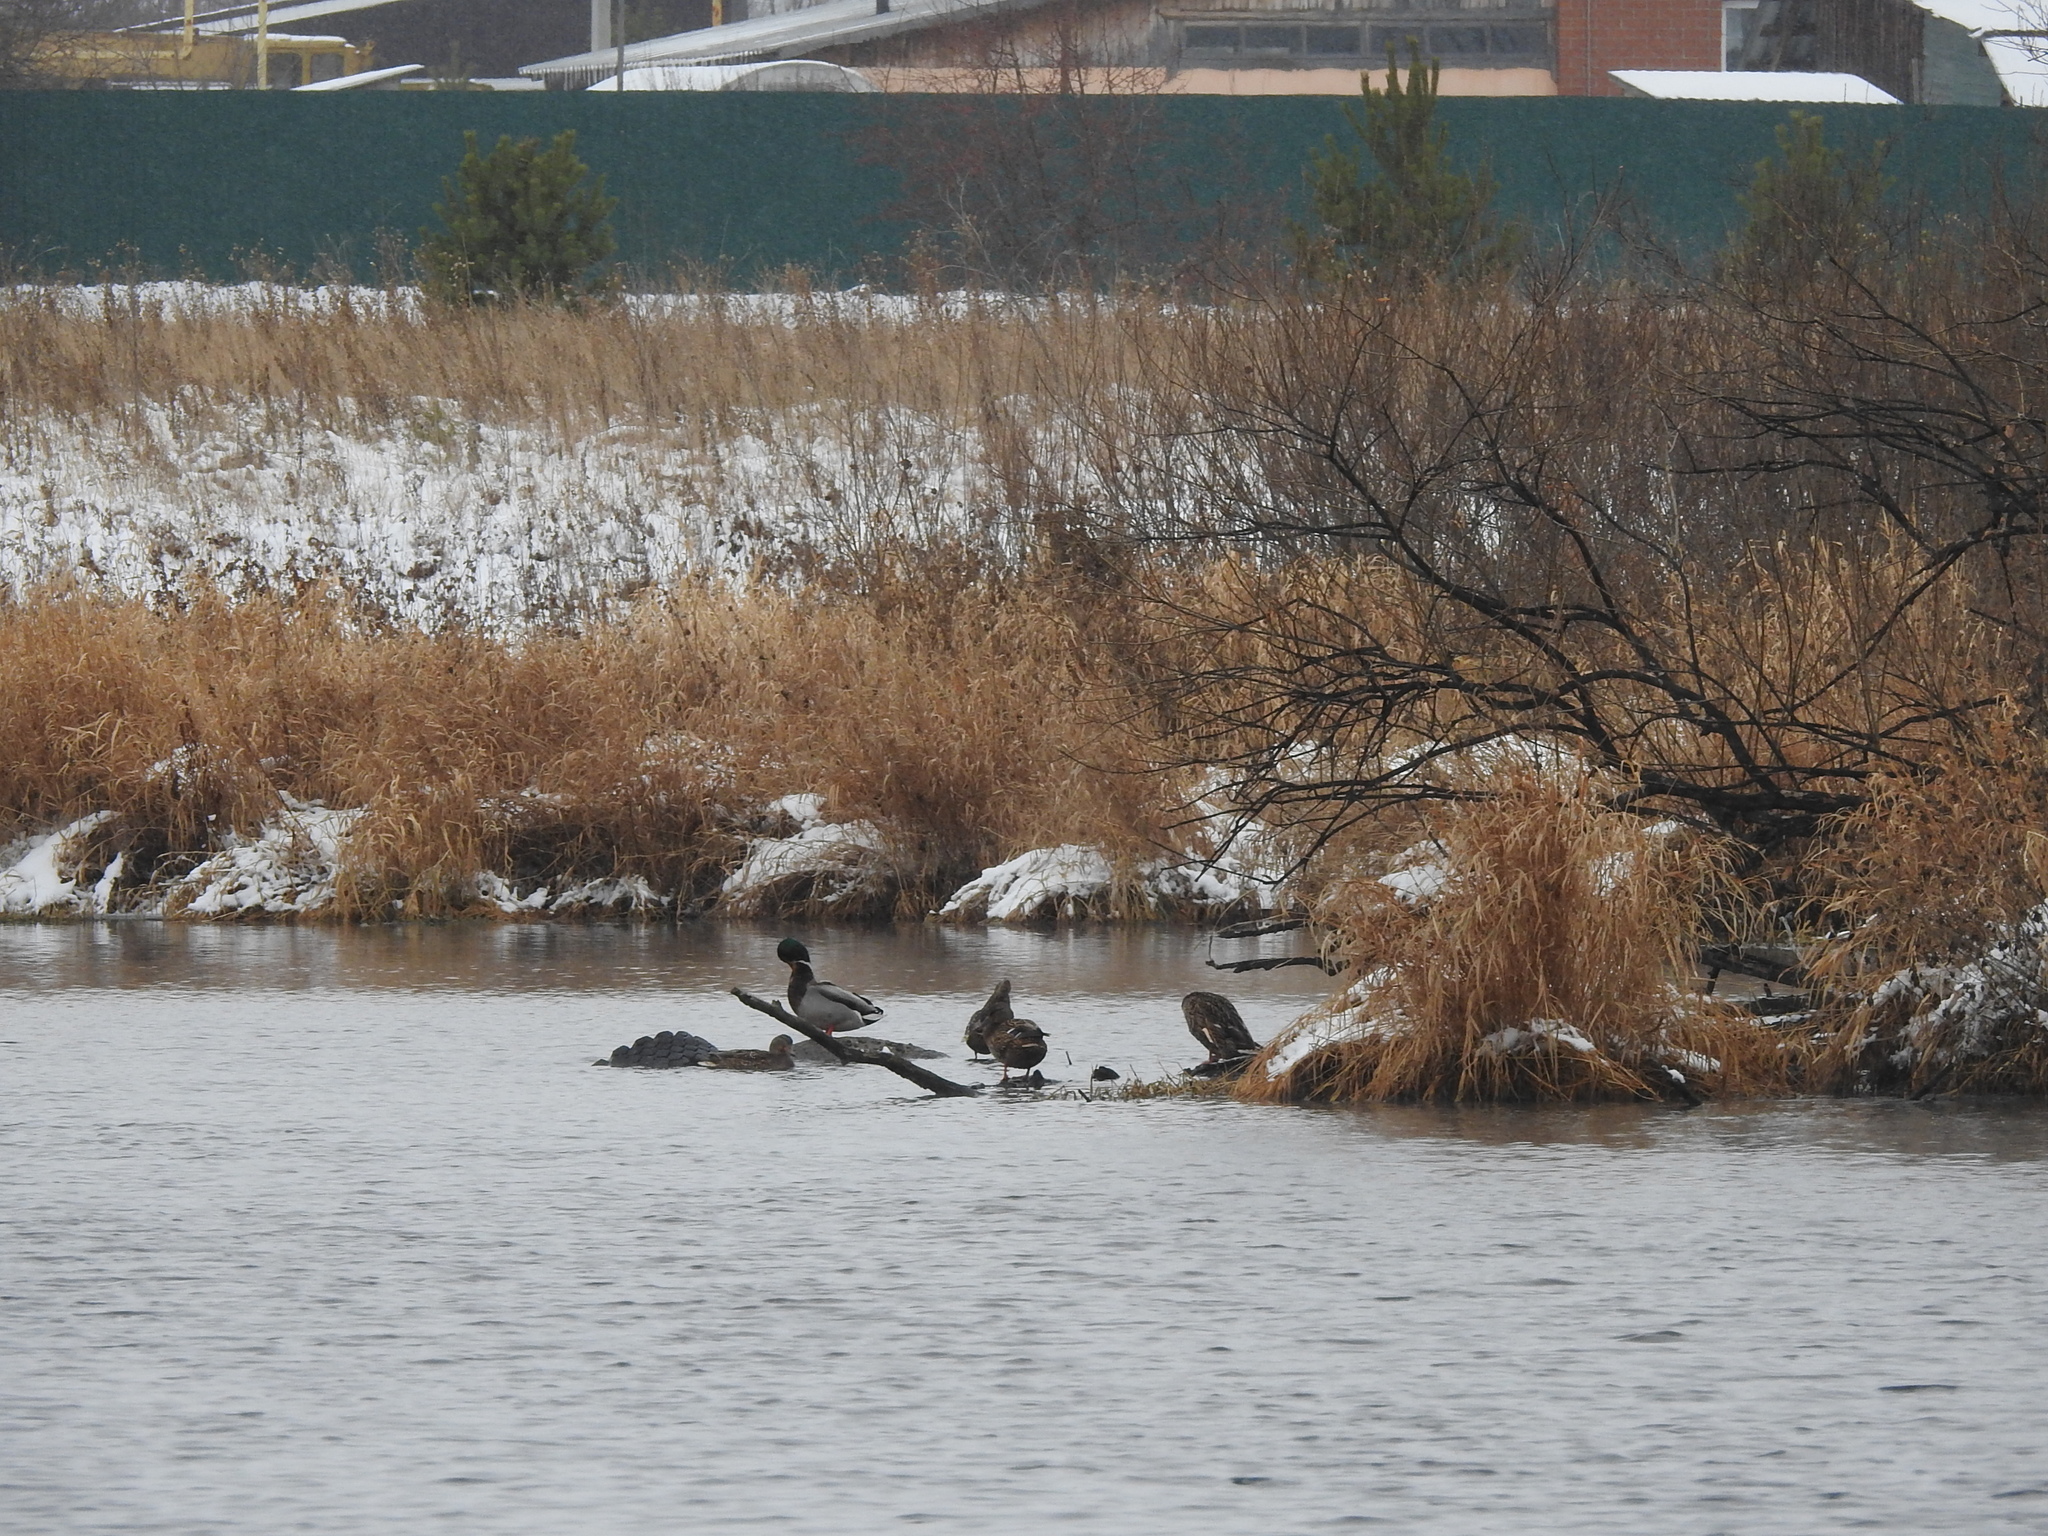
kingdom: Animalia
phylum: Chordata
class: Aves
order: Anseriformes
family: Anatidae
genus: Anas
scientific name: Anas platyrhynchos
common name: Mallard
